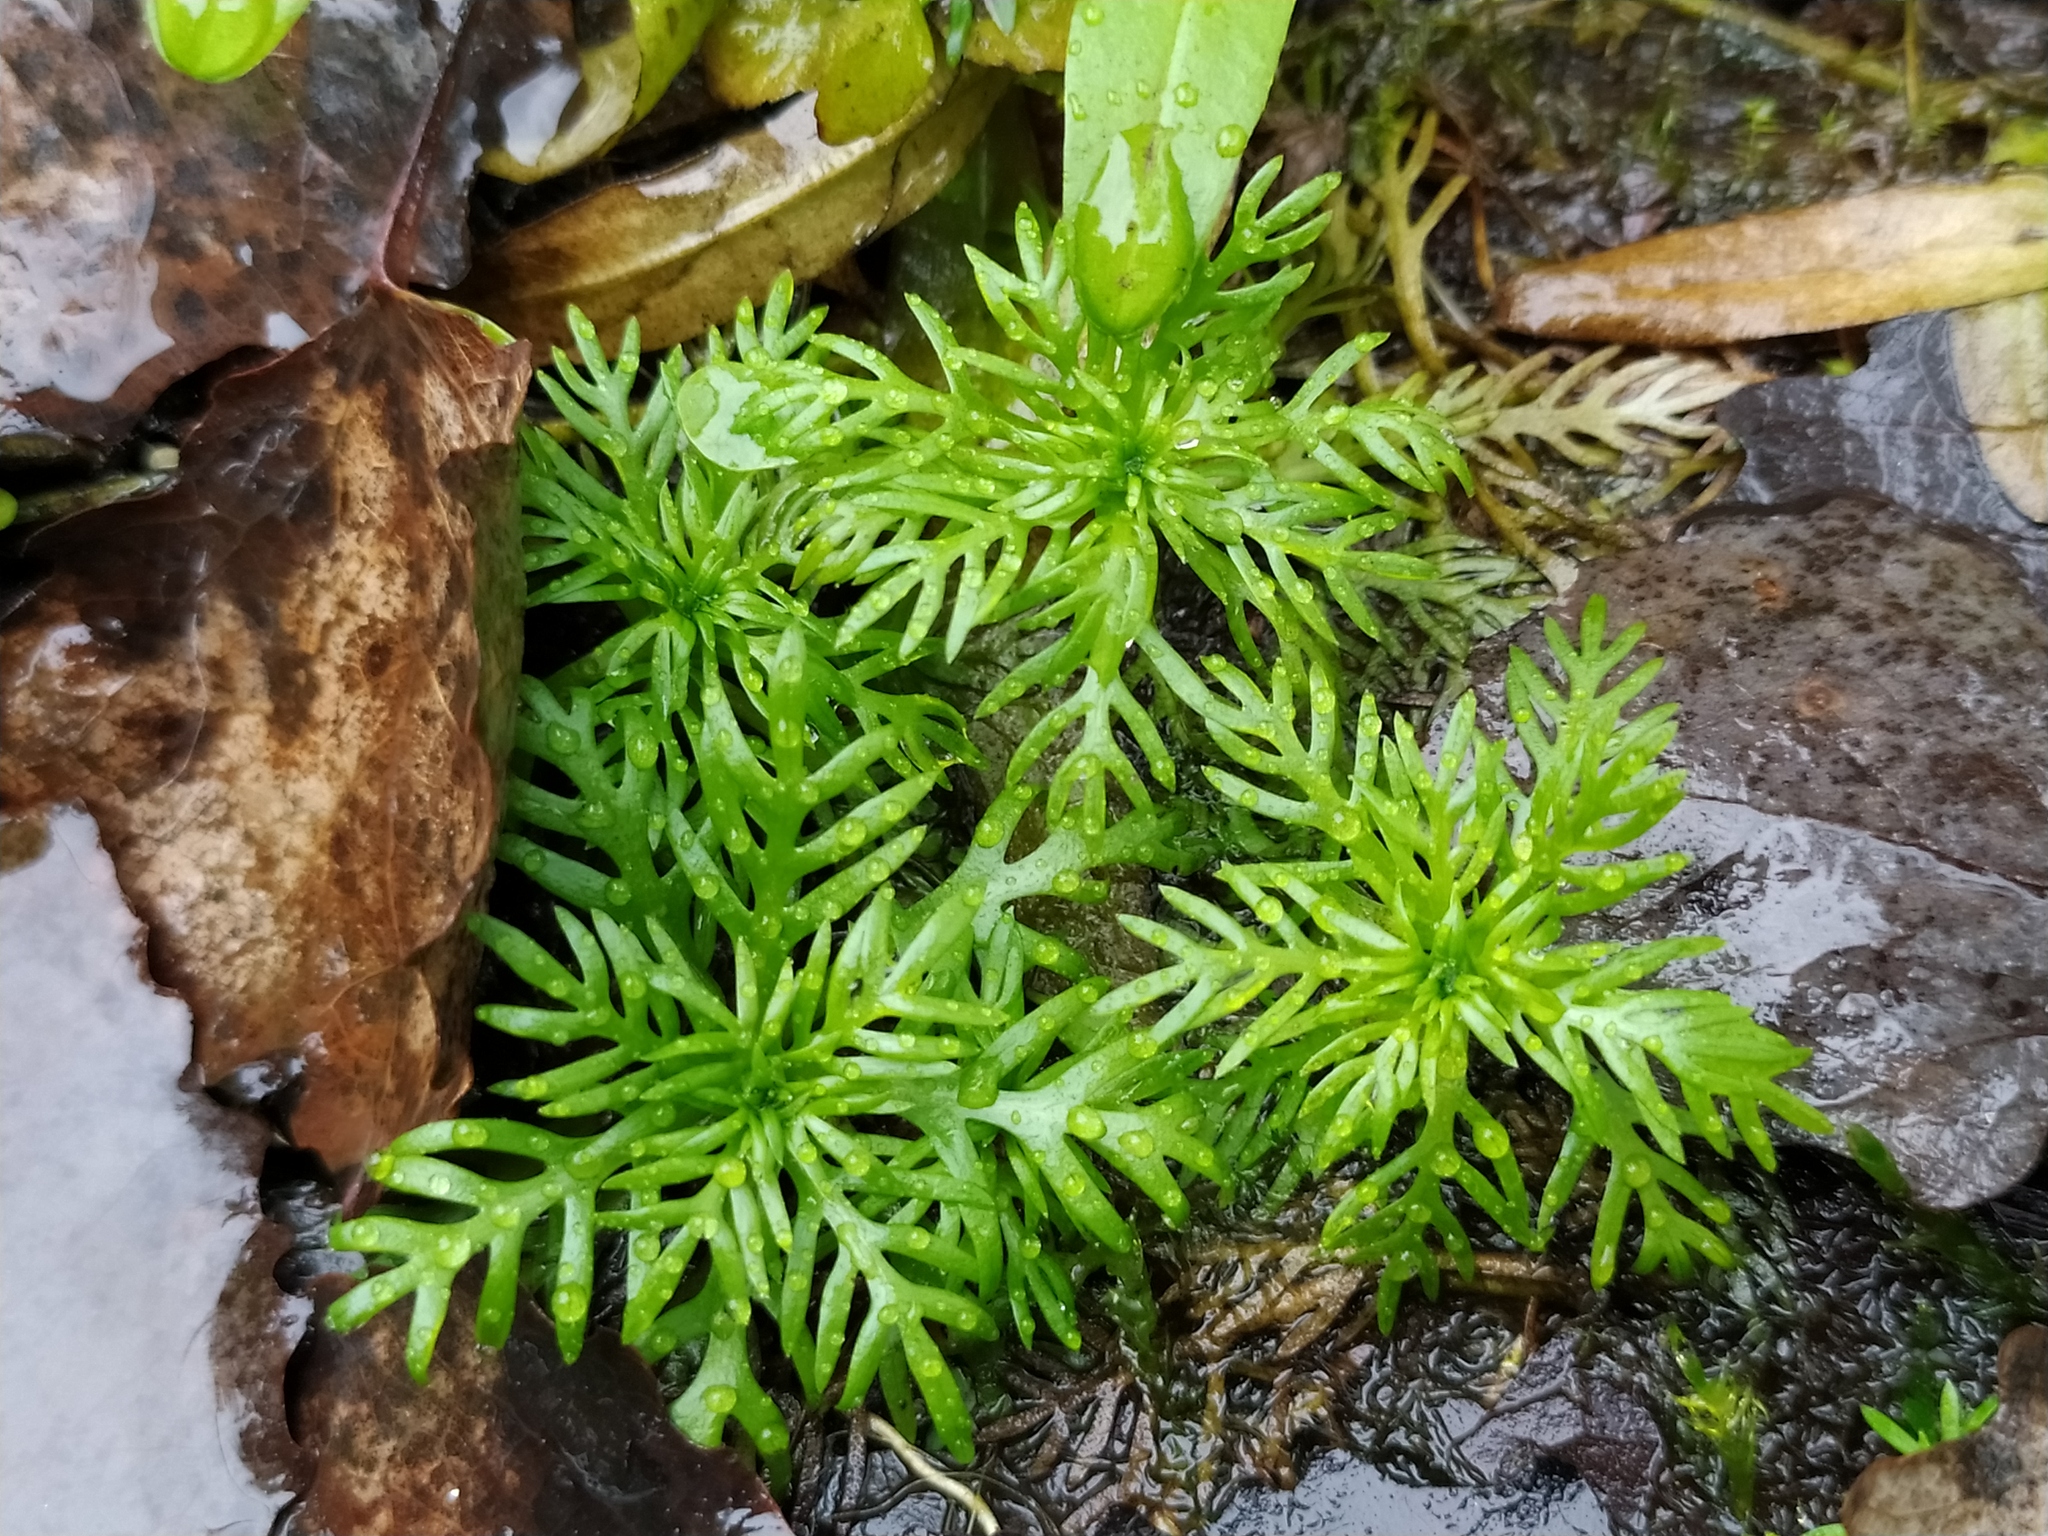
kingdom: Plantae
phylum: Tracheophyta
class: Magnoliopsida
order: Ericales
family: Primulaceae
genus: Hottonia
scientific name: Hottonia palustris
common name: Water-violet
